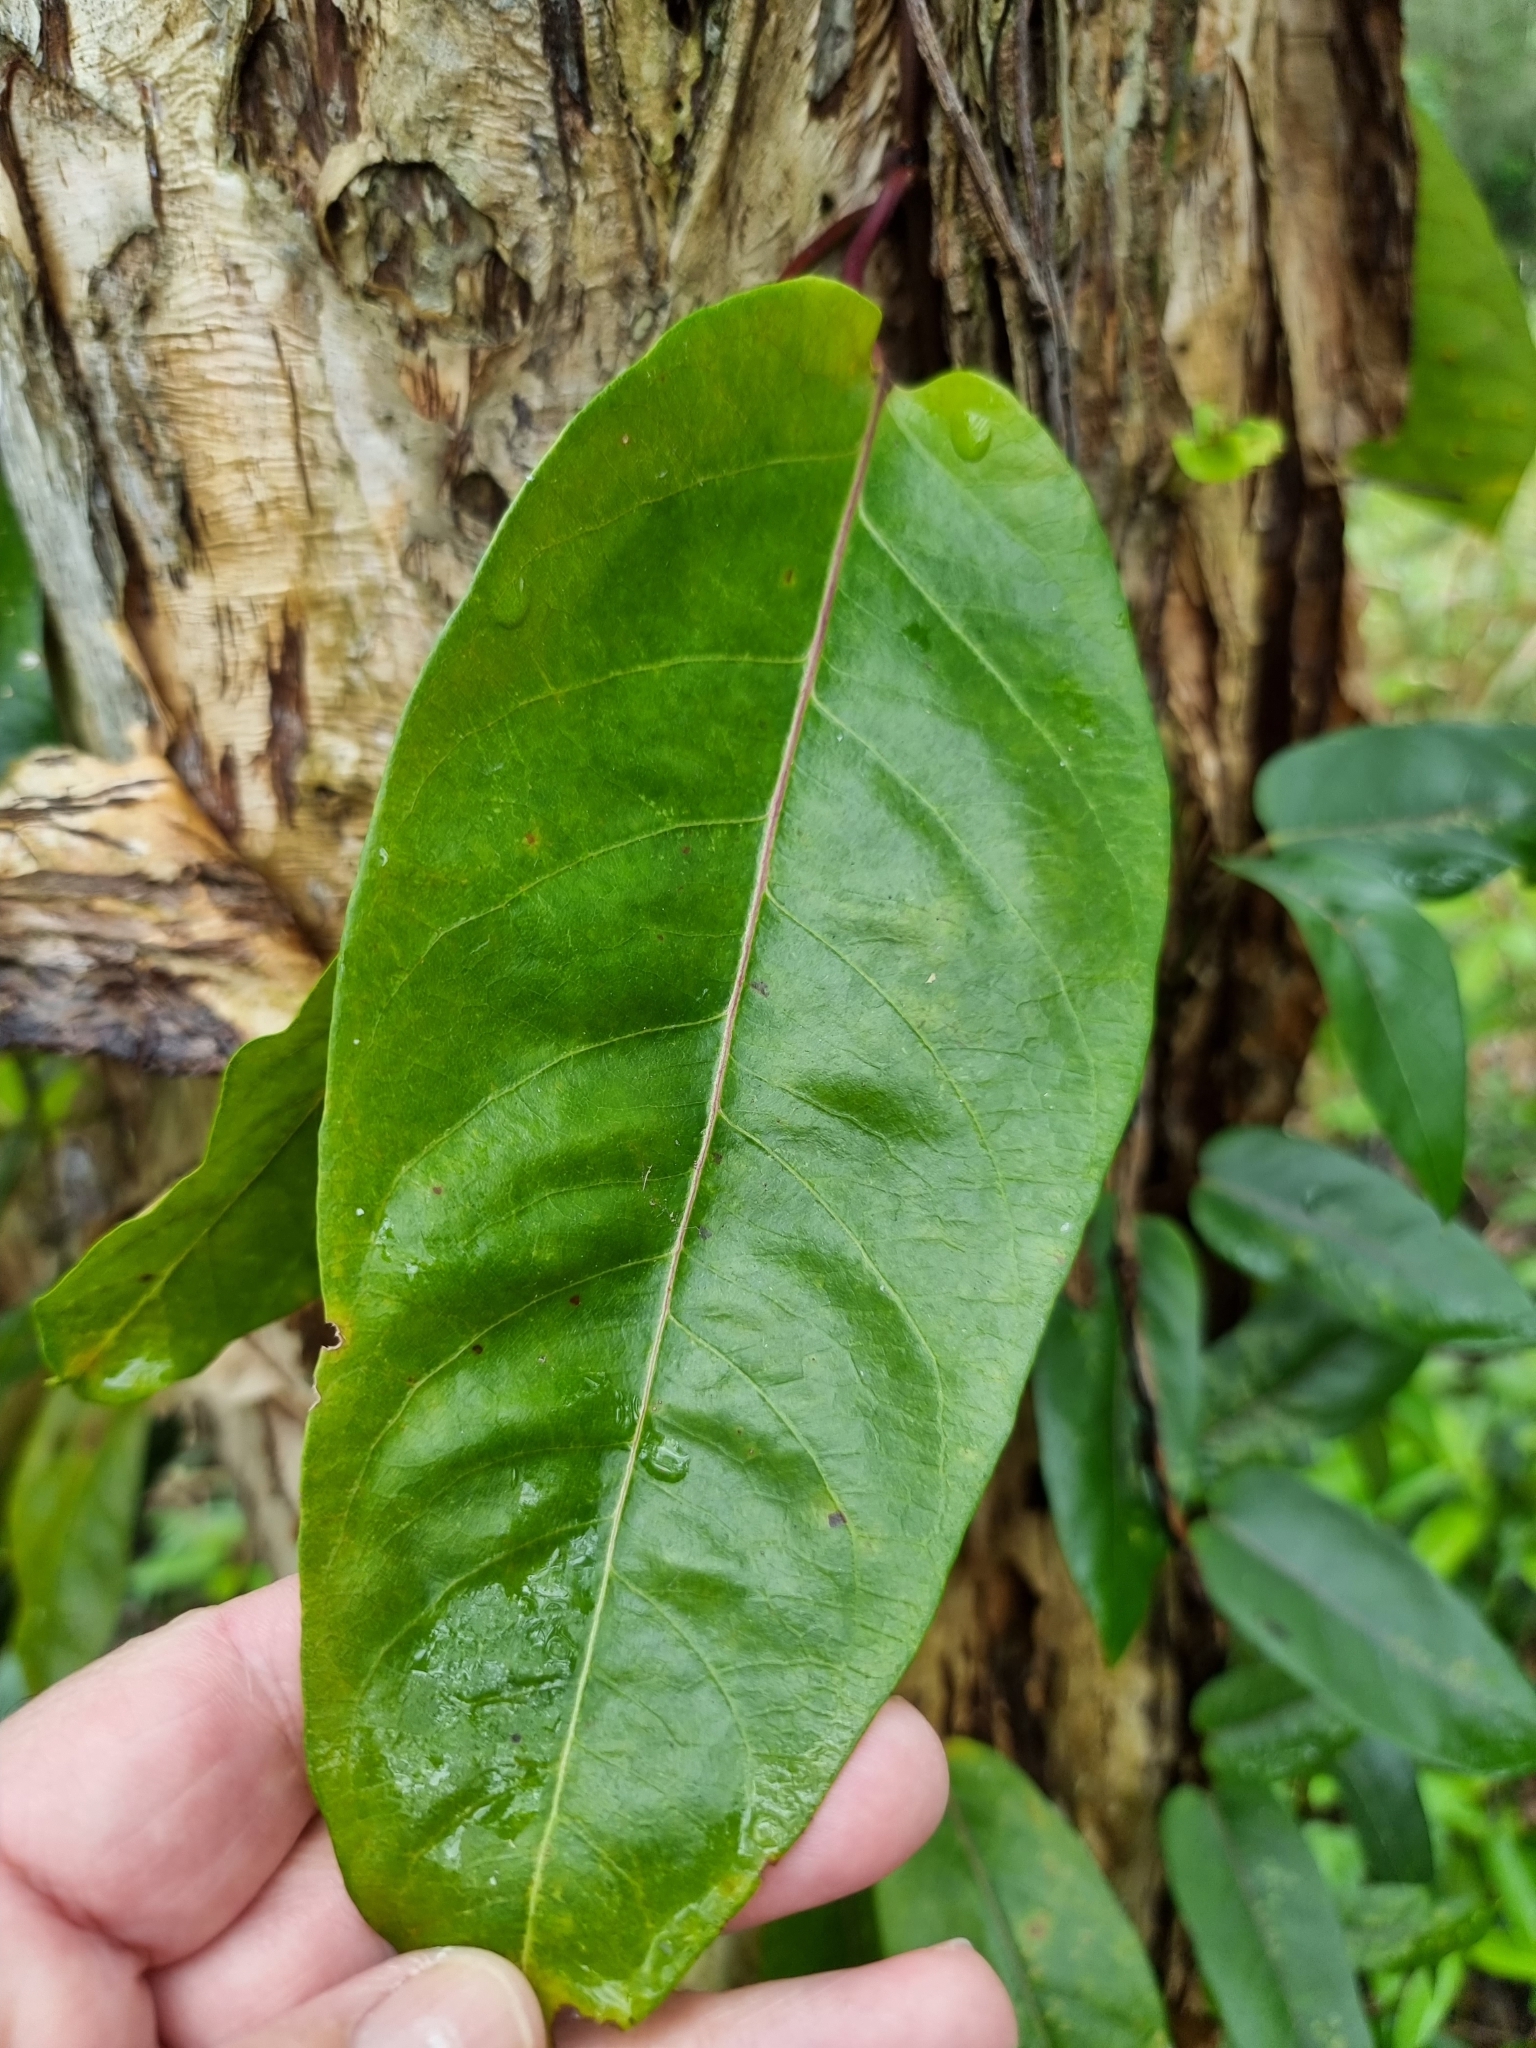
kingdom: Plantae
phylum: Tracheophyta
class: Magnoliopsida
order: Gentianales
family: Apocynaceae
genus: Parsonsia
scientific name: Parsonsia straminea
